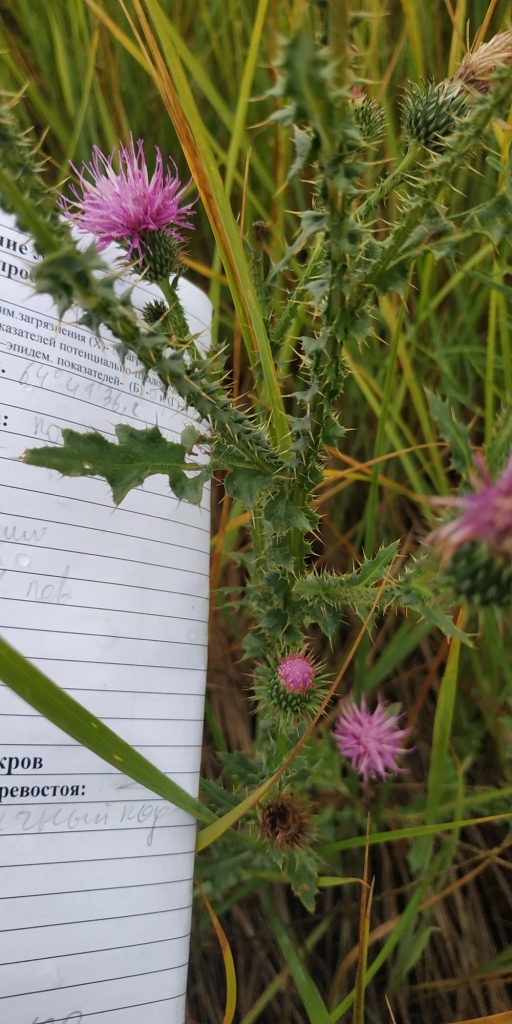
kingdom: Plantae
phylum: Tracheophyta
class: Magnoliopsida
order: Asterales
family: Asteraceae
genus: Carduus
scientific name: Carduus acanthoides
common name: Plumeless thistle
